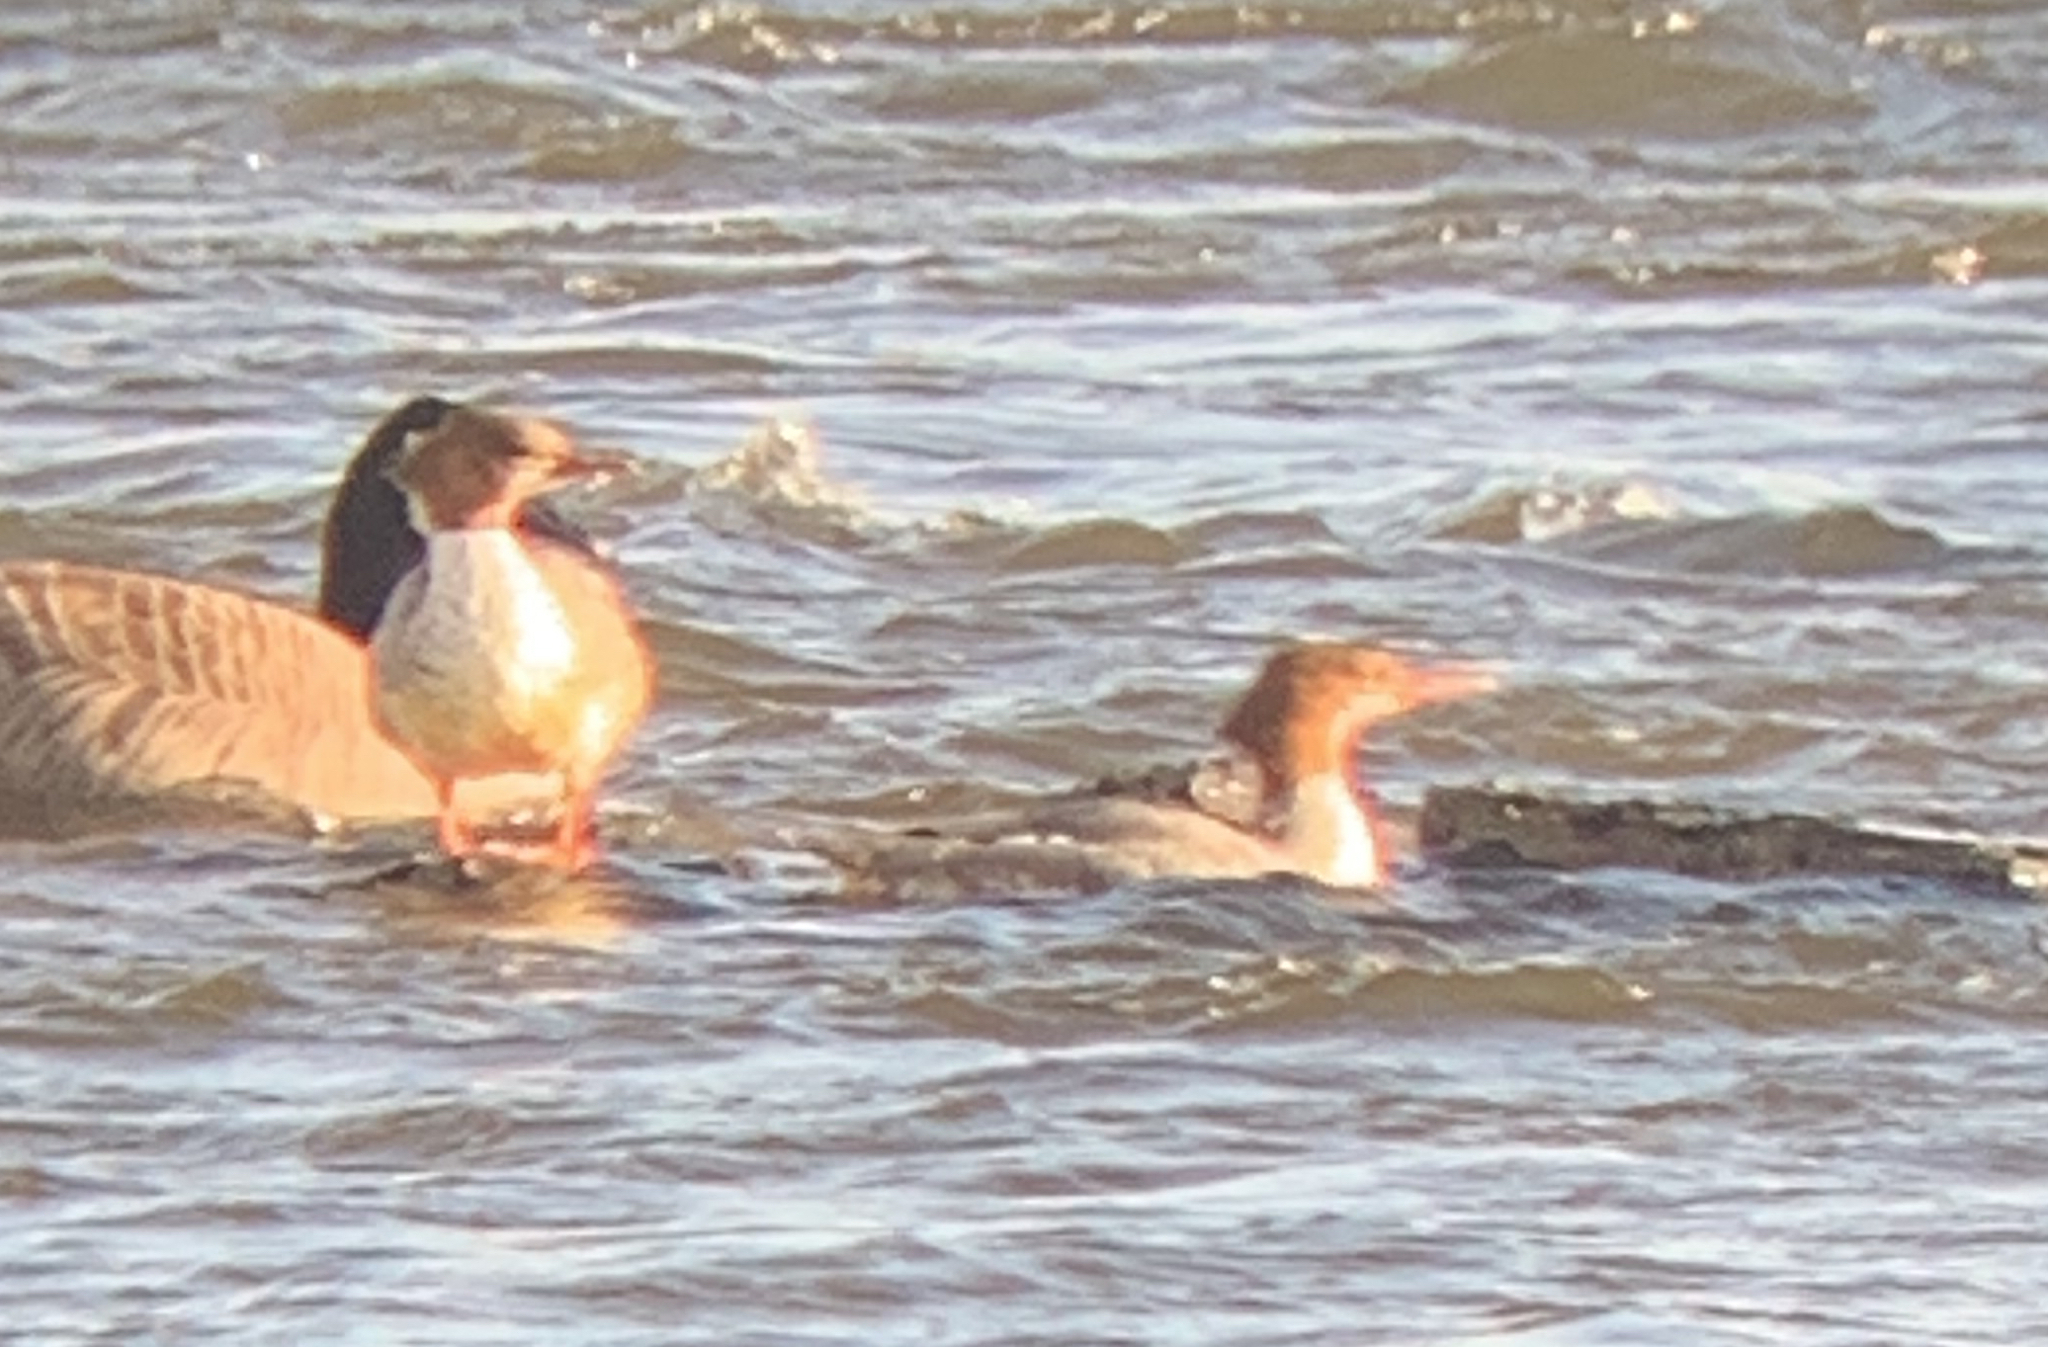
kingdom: Animalia
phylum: Chordata
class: Aves
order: Anseriformes
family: Anatidae
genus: Mergus
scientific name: Mergus merganser
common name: Common merganser
